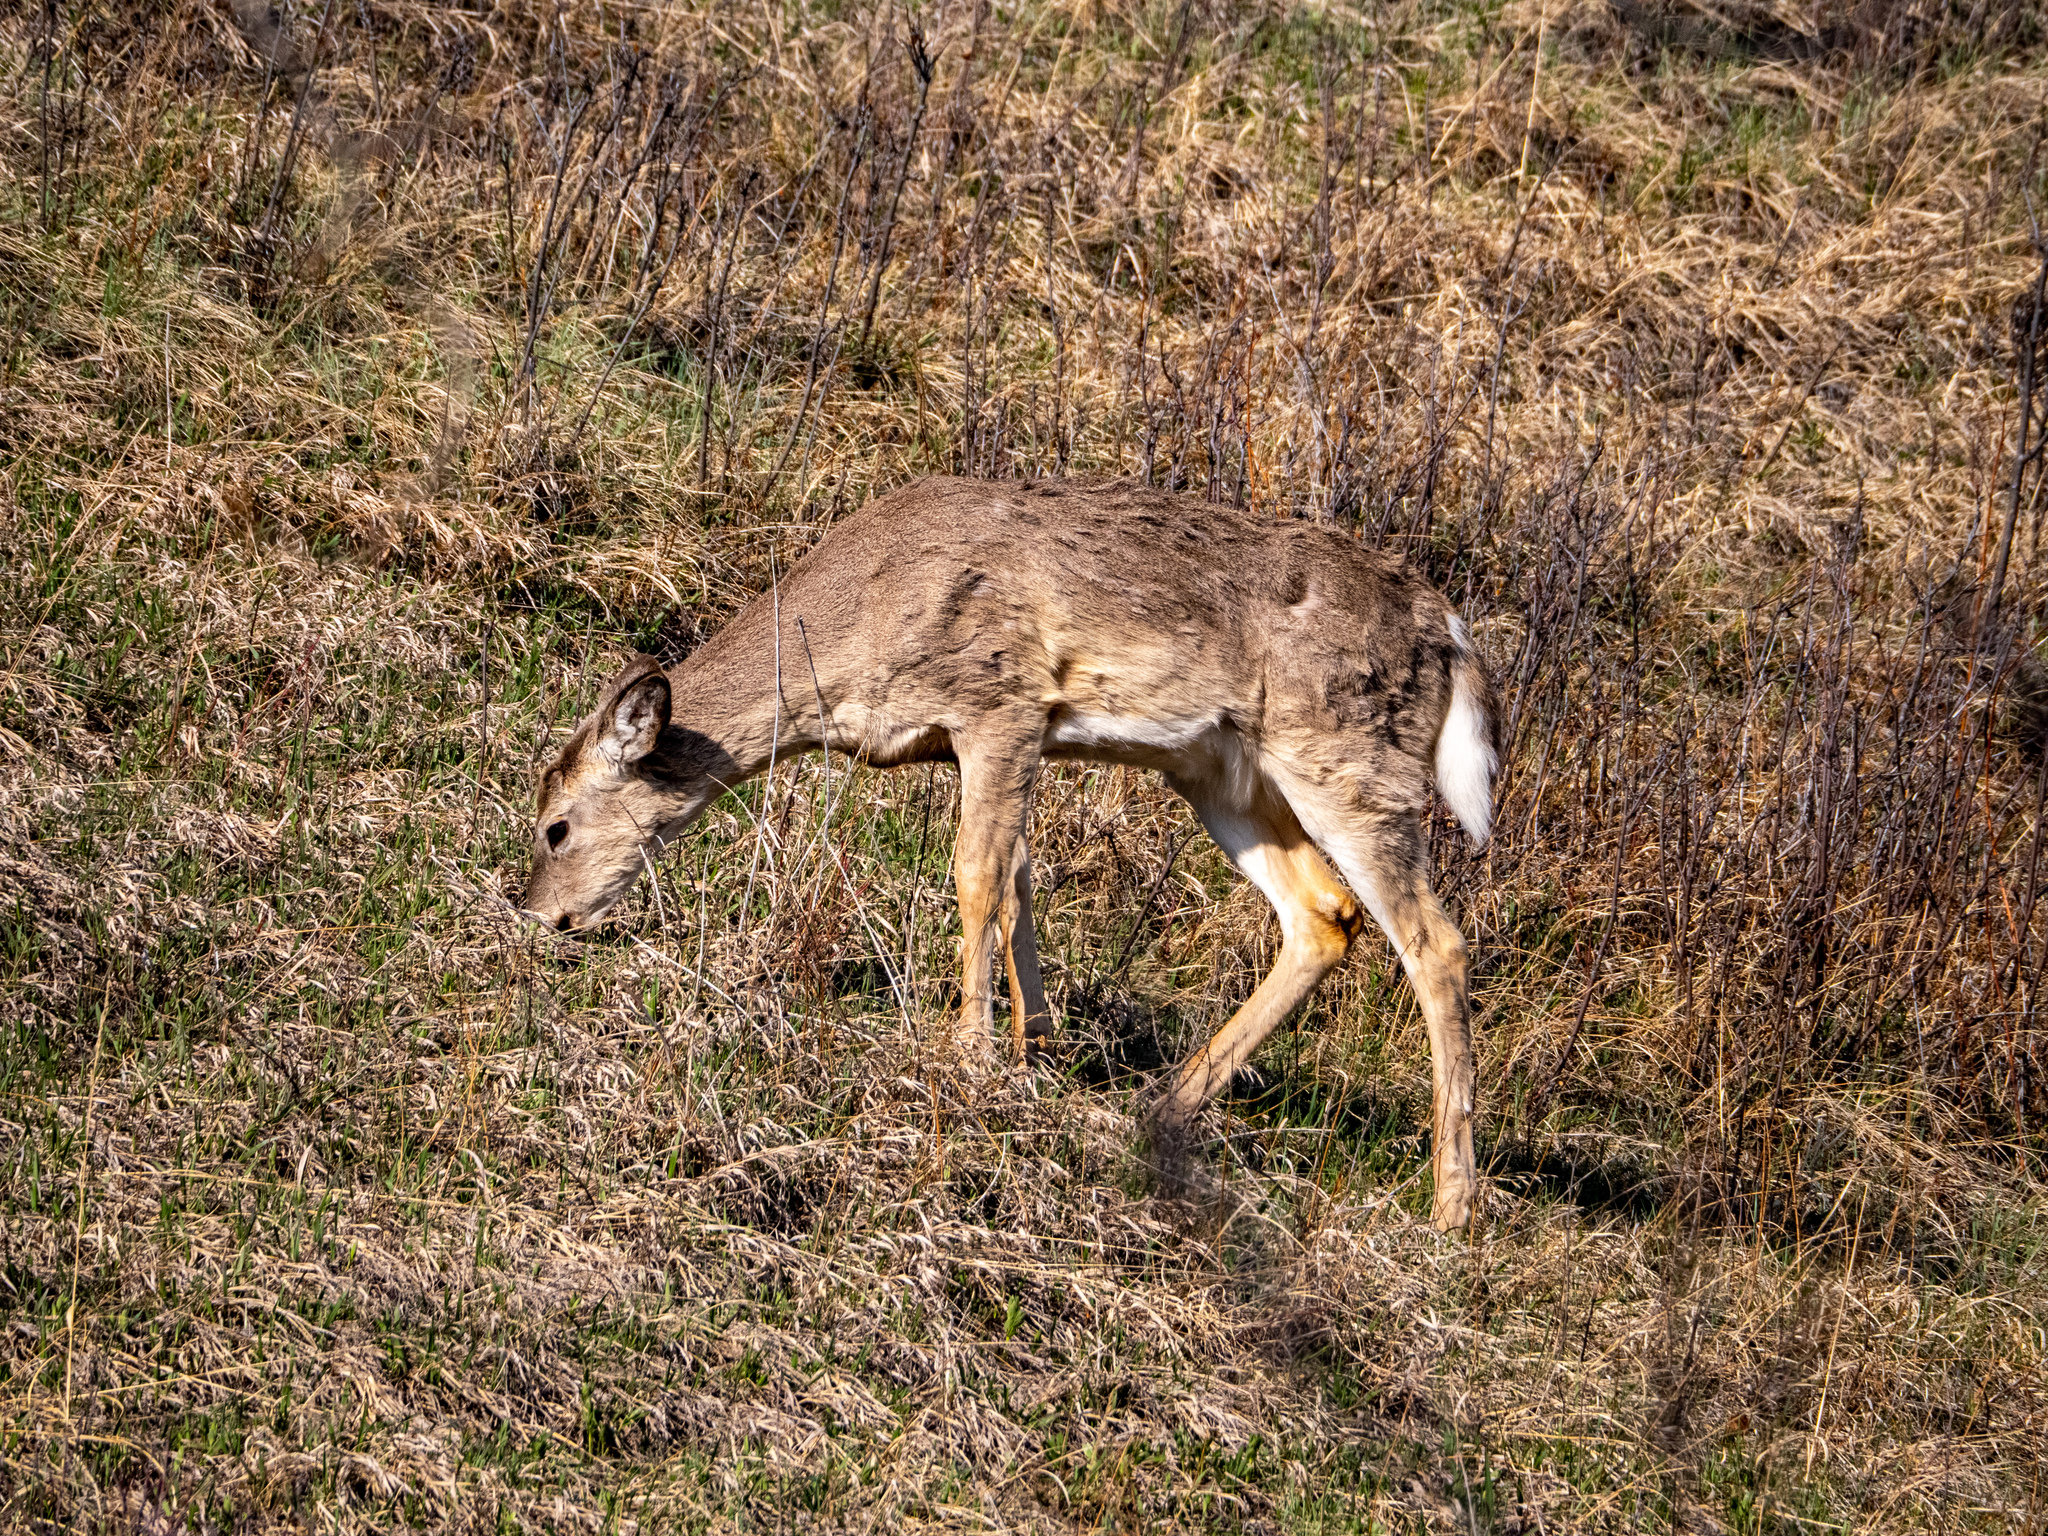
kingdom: Animalia
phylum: Chordata
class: Mammalia
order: Artiodactyla
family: Cervidae
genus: Odocoileus
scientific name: Odocoileus virginianus
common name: White-tailed deer
